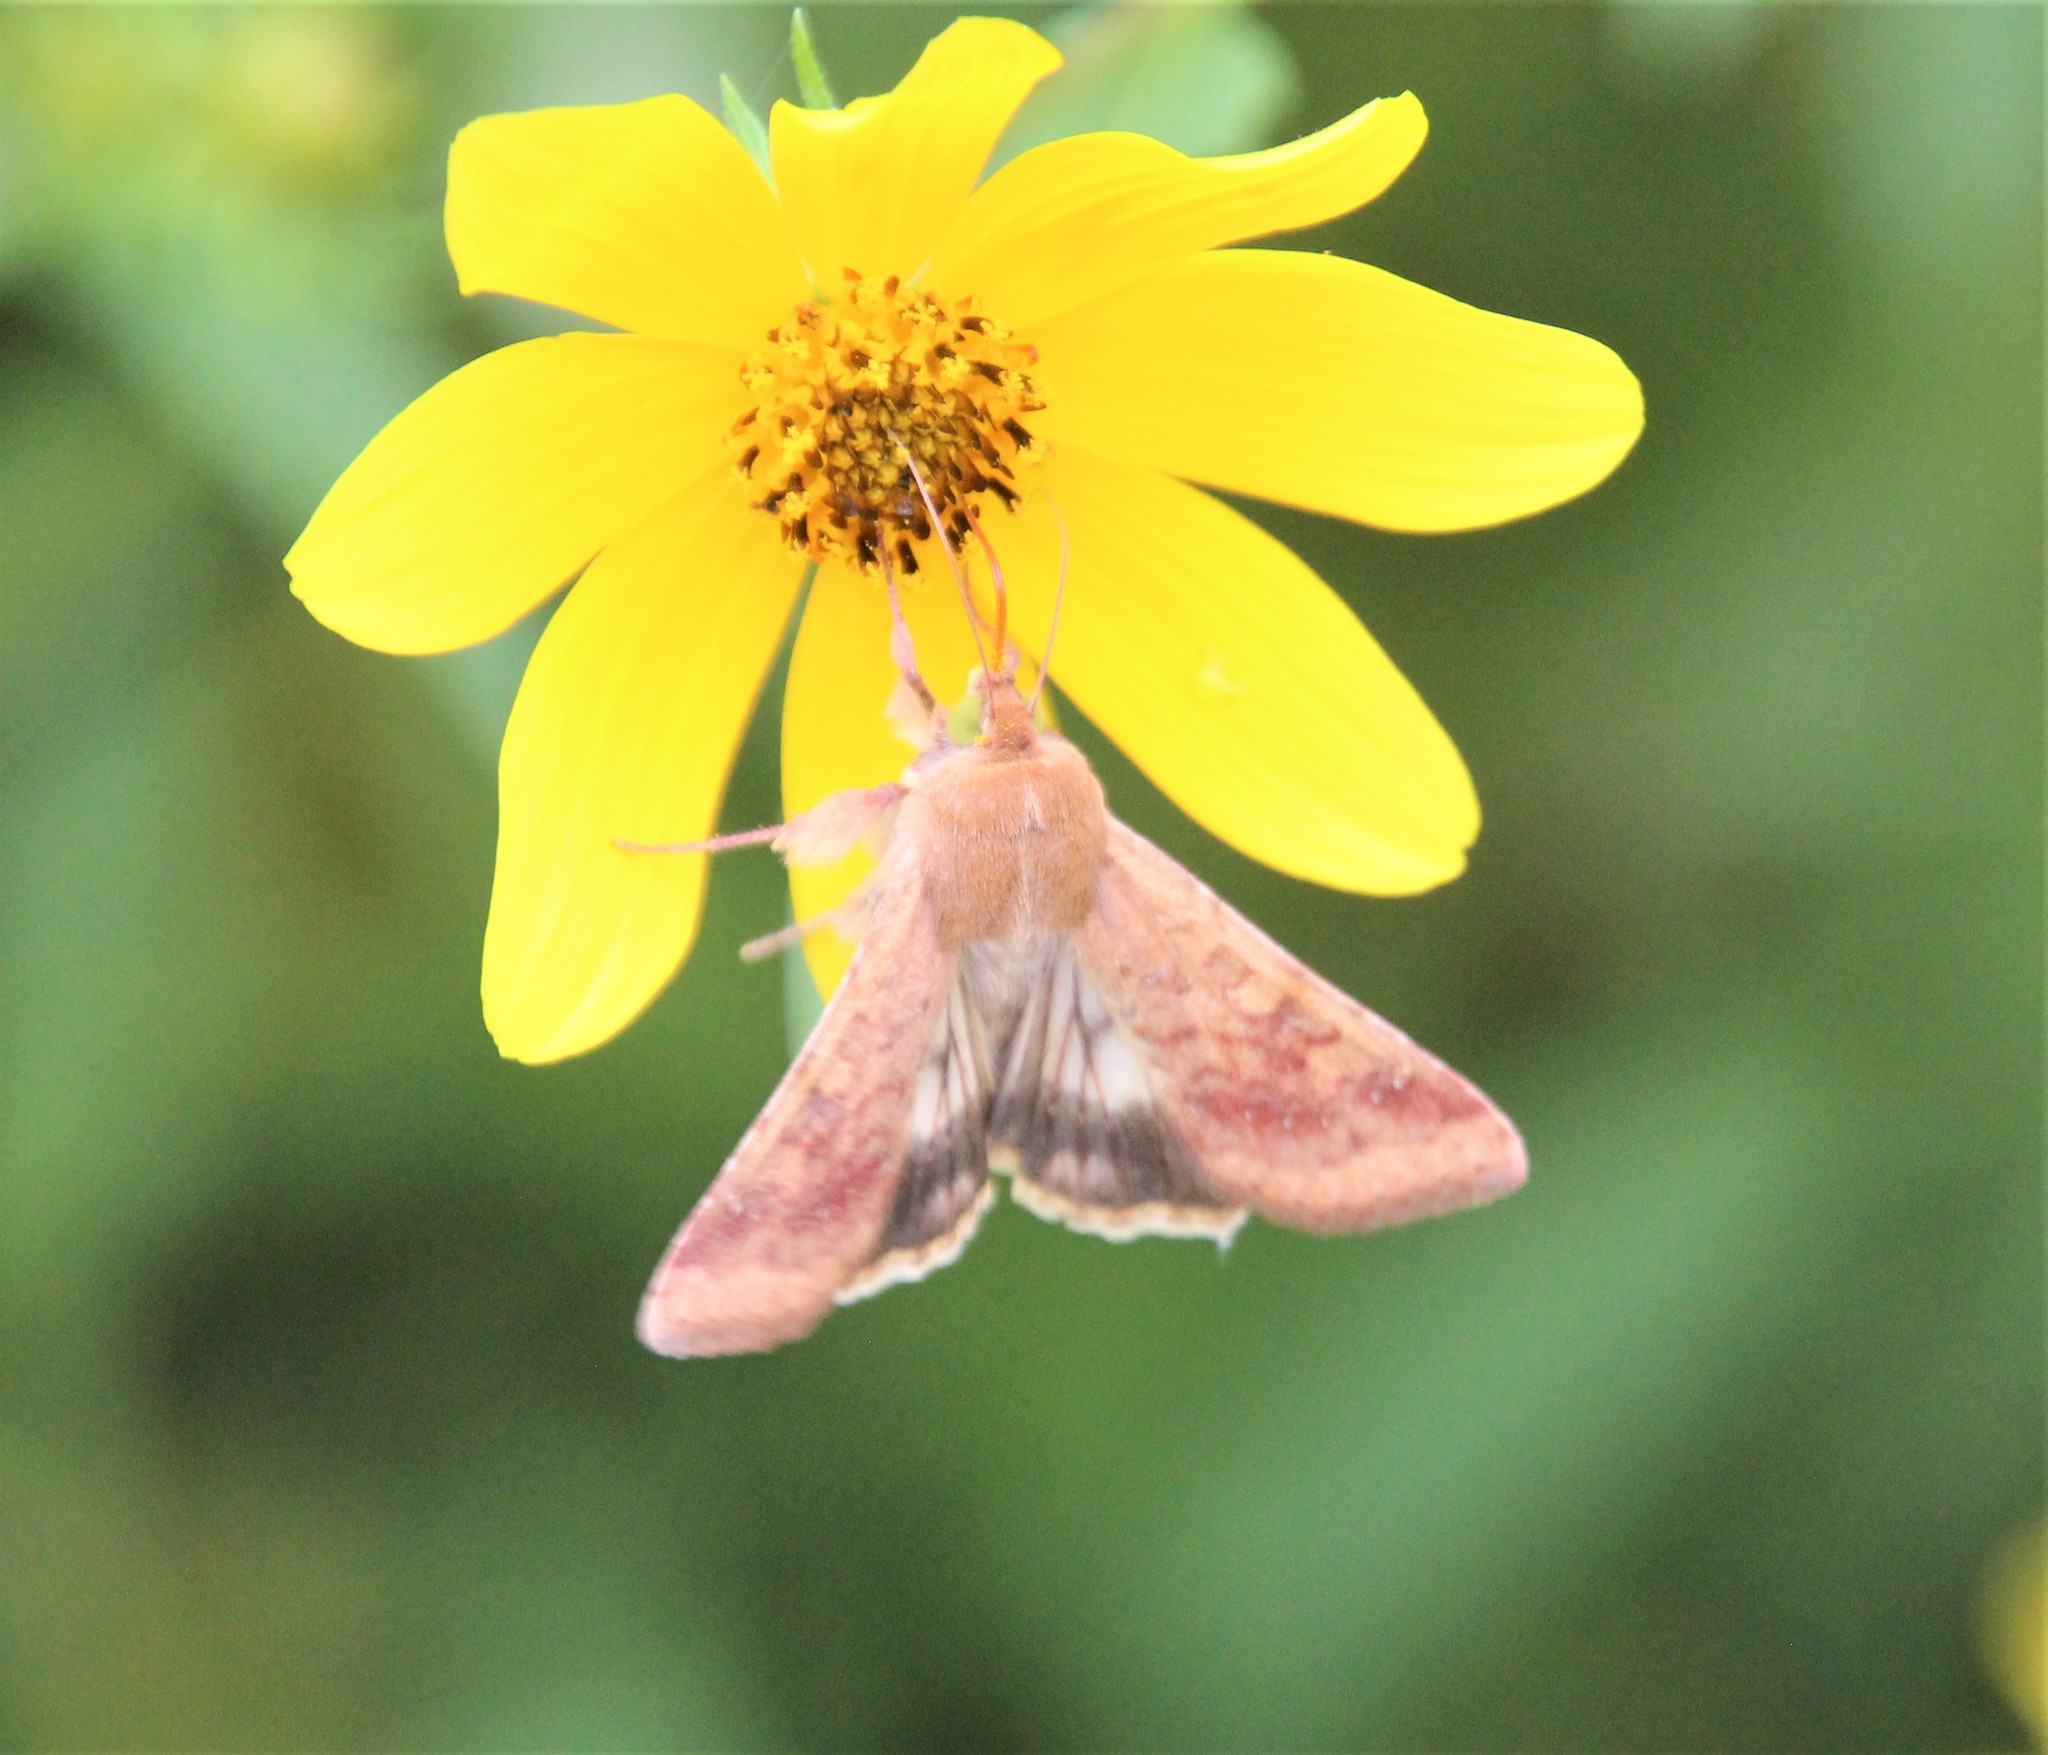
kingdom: Animalia
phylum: Arthropoda
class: Insecta
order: Lepidoptera
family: Noctuidae
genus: Helicoverpa
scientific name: Helicoverpa zea
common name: Bollworm
